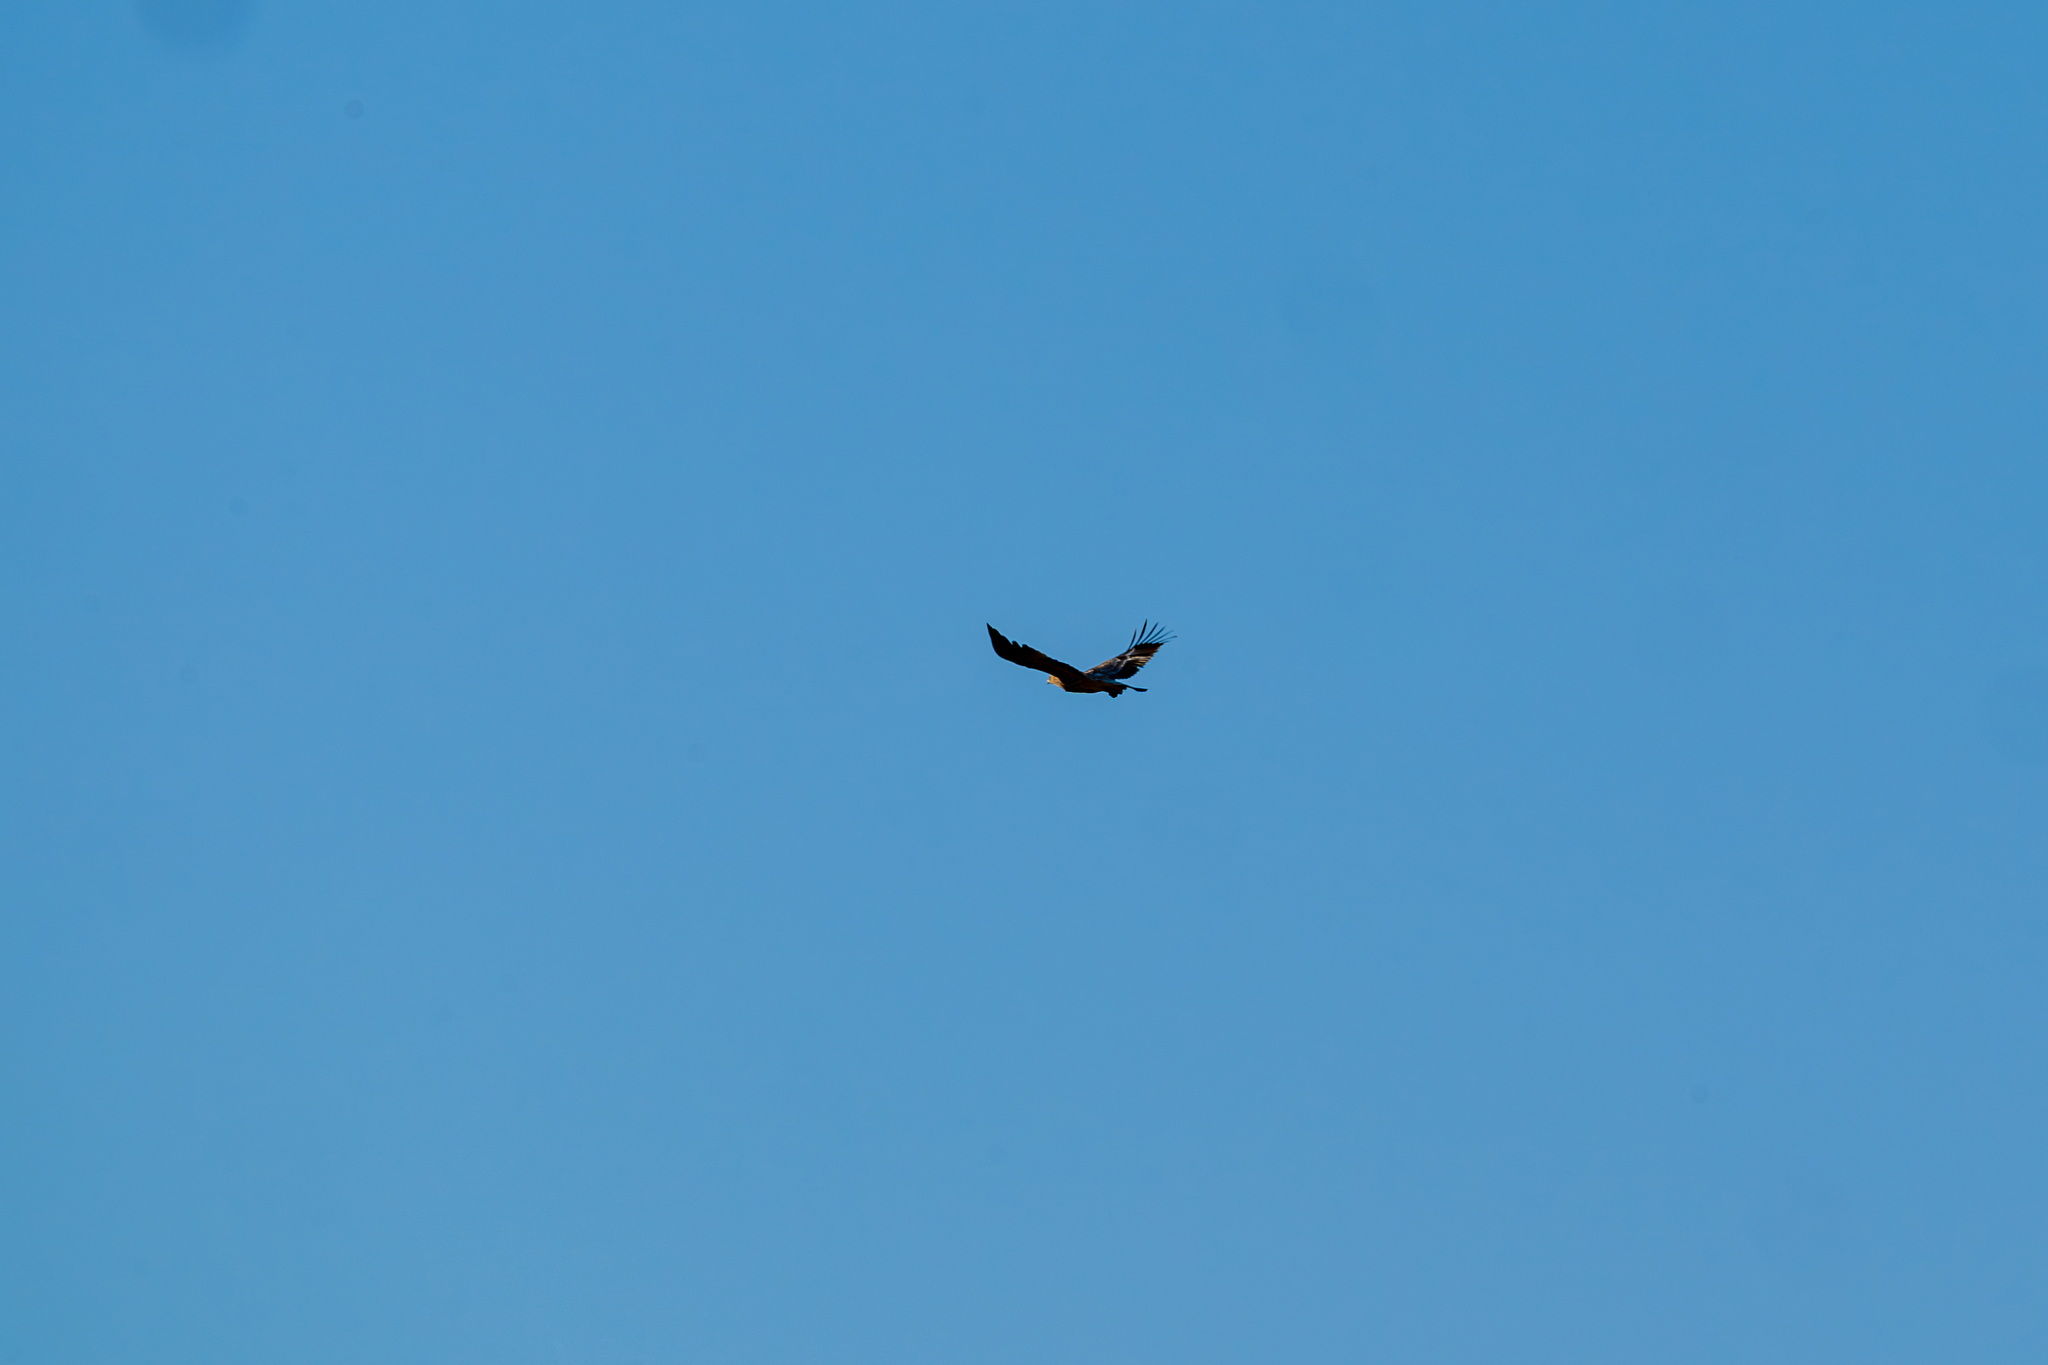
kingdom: Animalia
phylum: Chordata
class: Aves
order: Accipitriformes
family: Accipitridae
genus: Aquila
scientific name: Aquila heliaca
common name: Eastern imperial eagle
